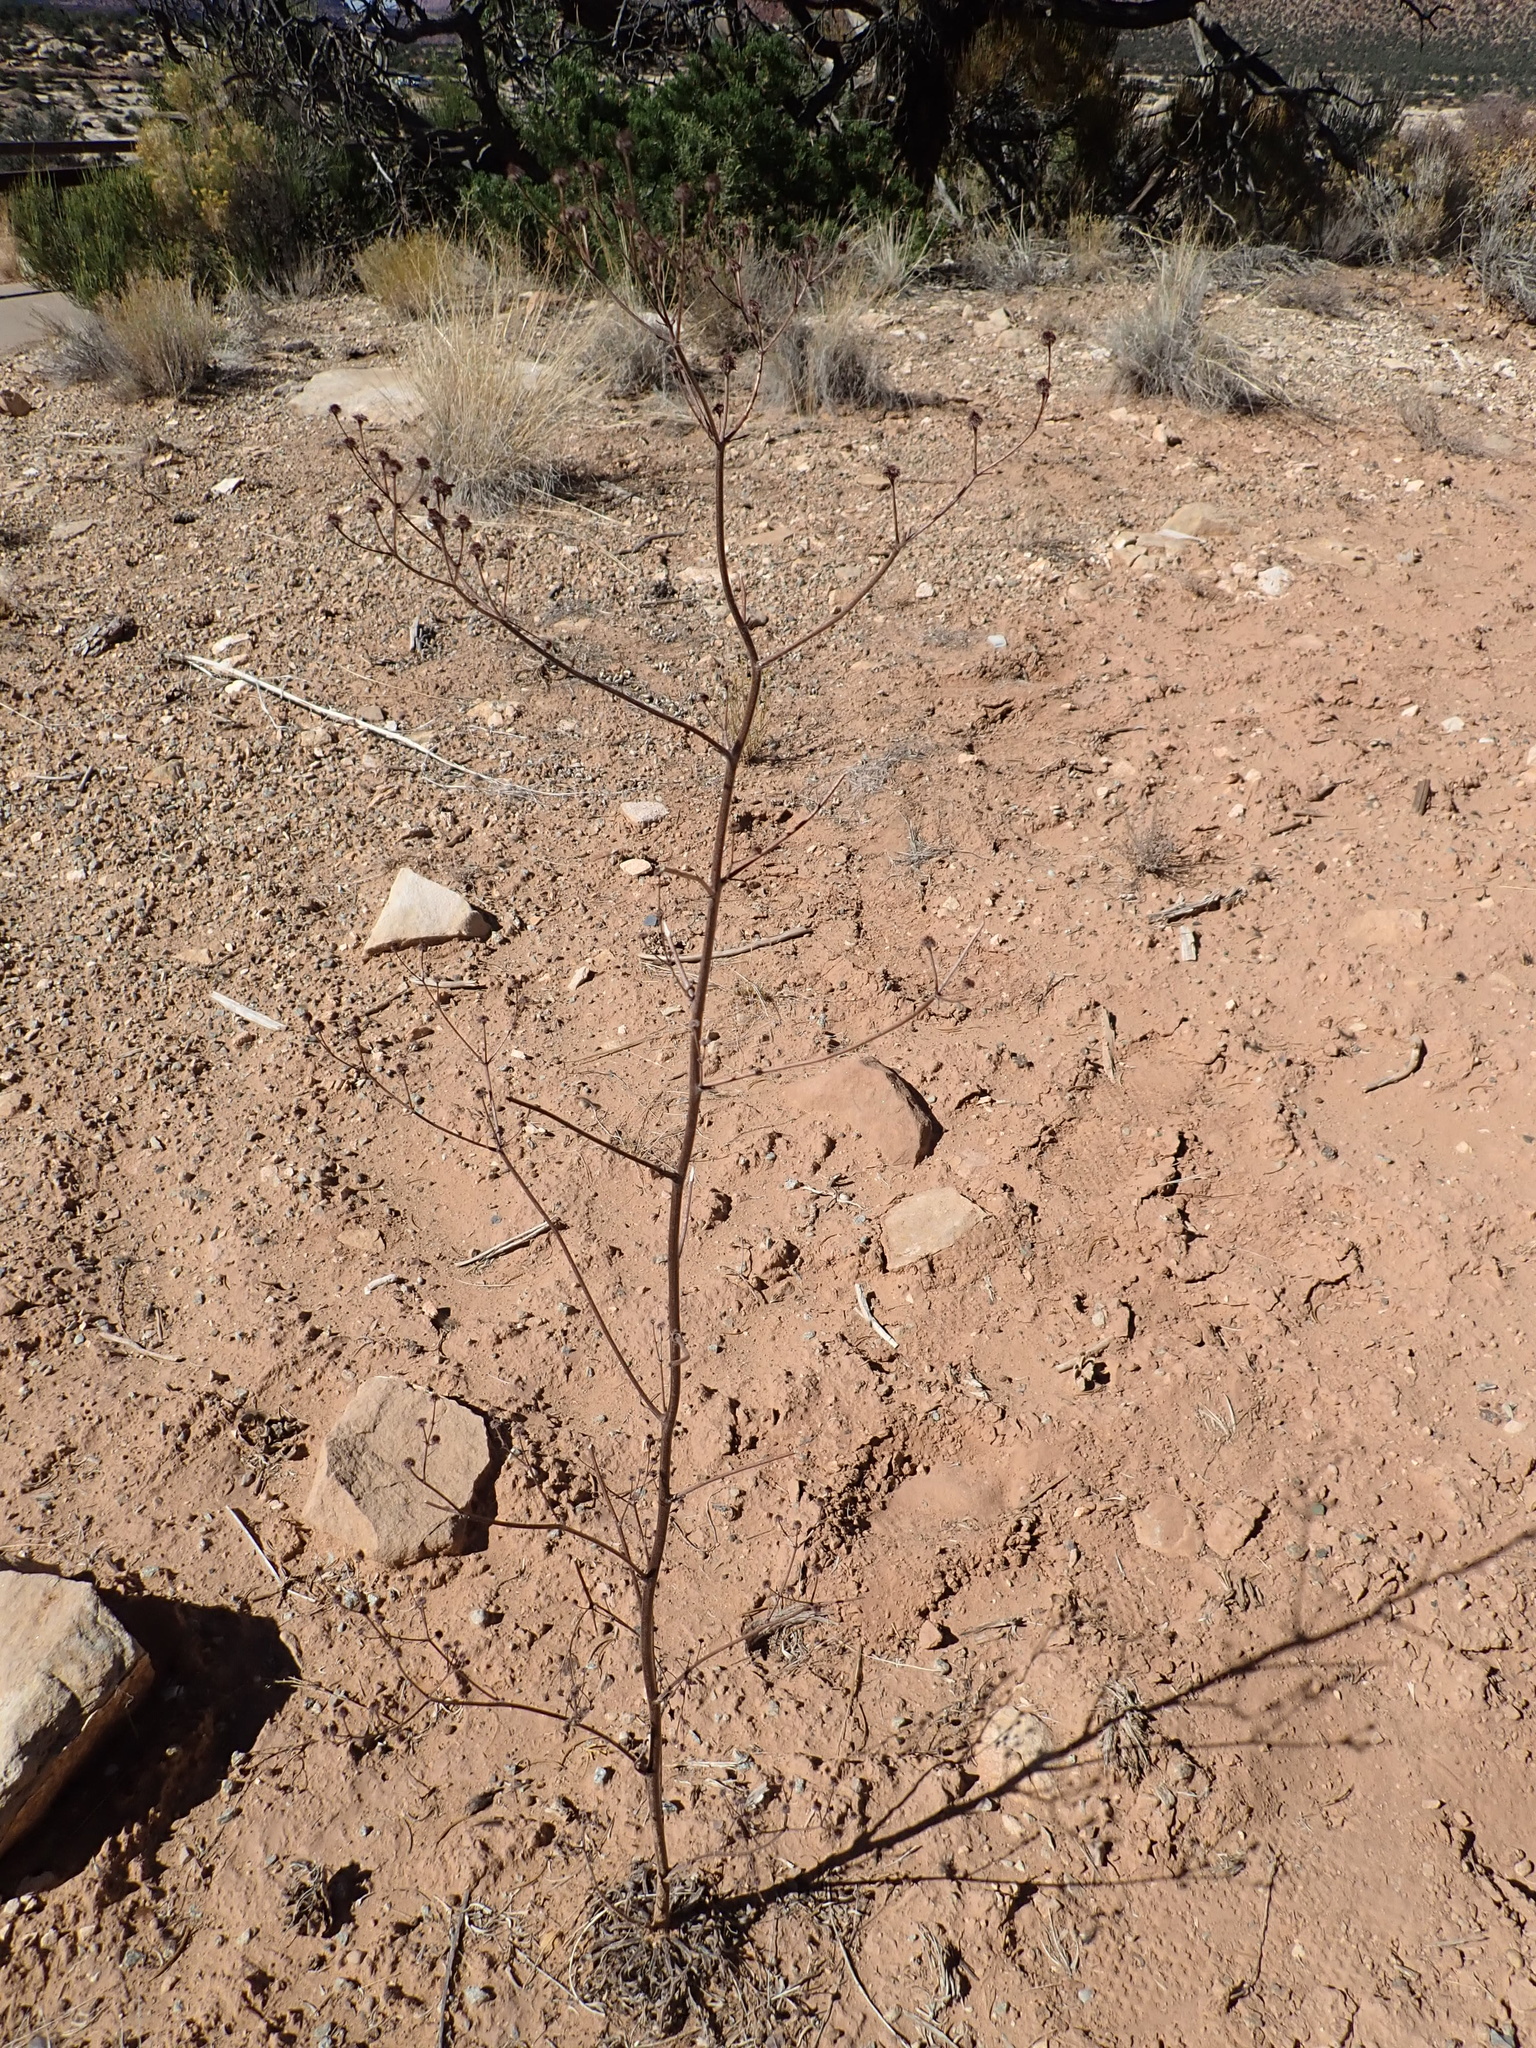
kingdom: Plantae
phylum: Tracheophyta
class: Magnoliopsida
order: Caryophyllales
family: Polygonaceae
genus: Eriogonum
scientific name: Eriogonum alatum
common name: Winged eriogonum
